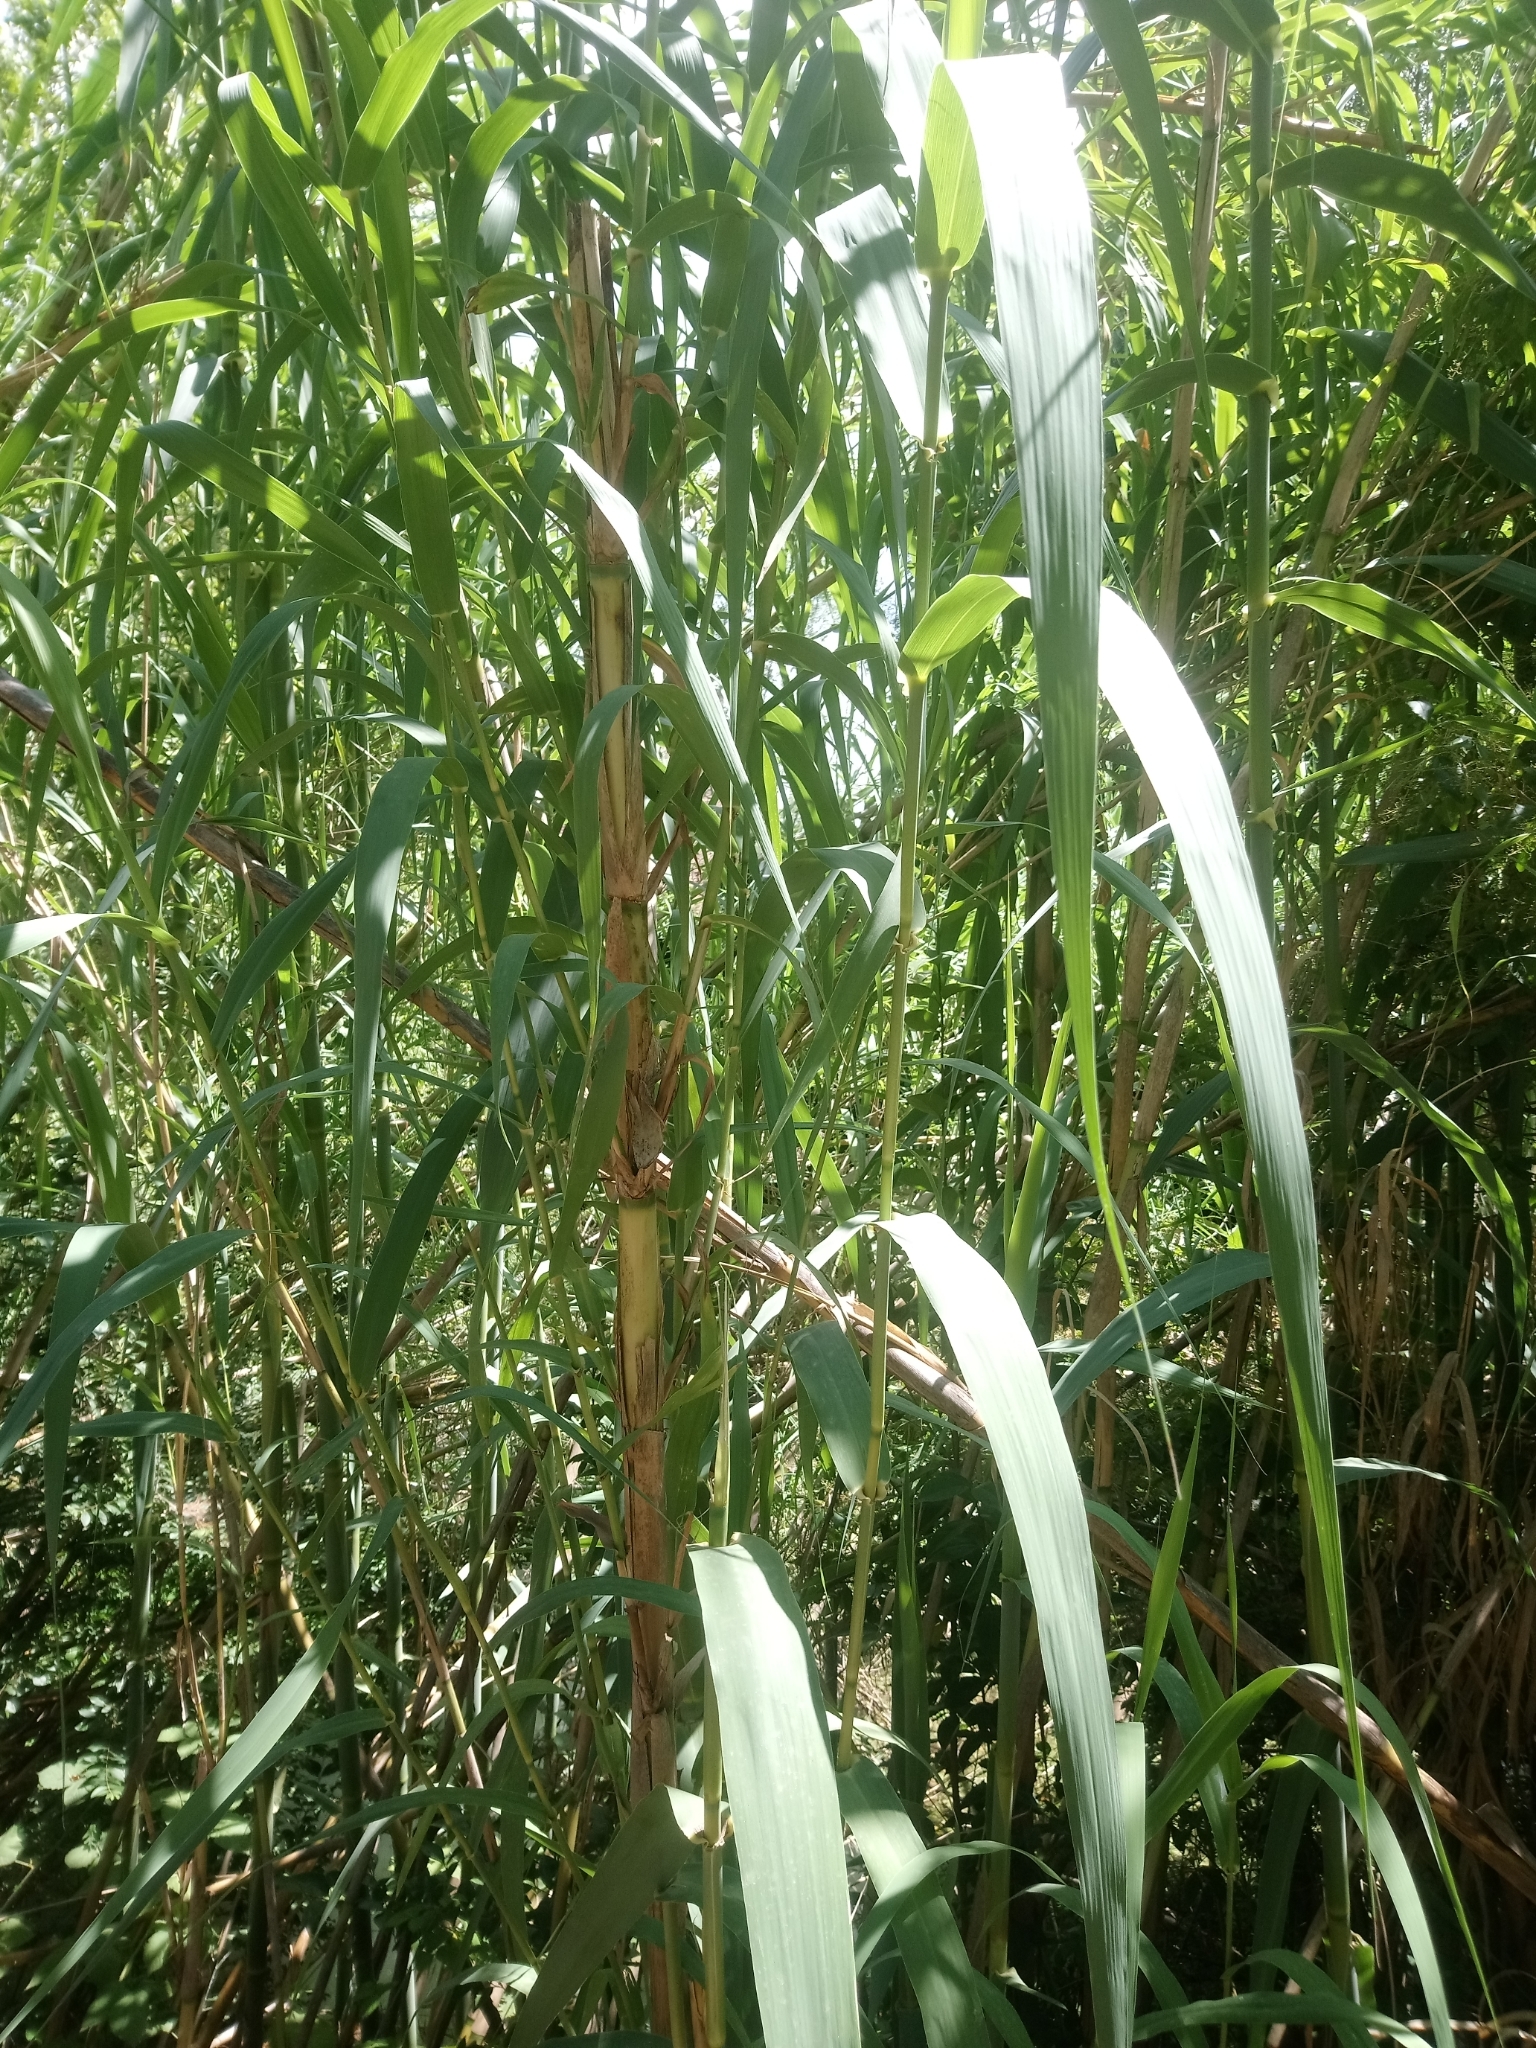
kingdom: Plantae
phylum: Tracheophyta
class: Liliopsida
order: Poales
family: Poaceae
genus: Arundo
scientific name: Arundo donax
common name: Giant reed
